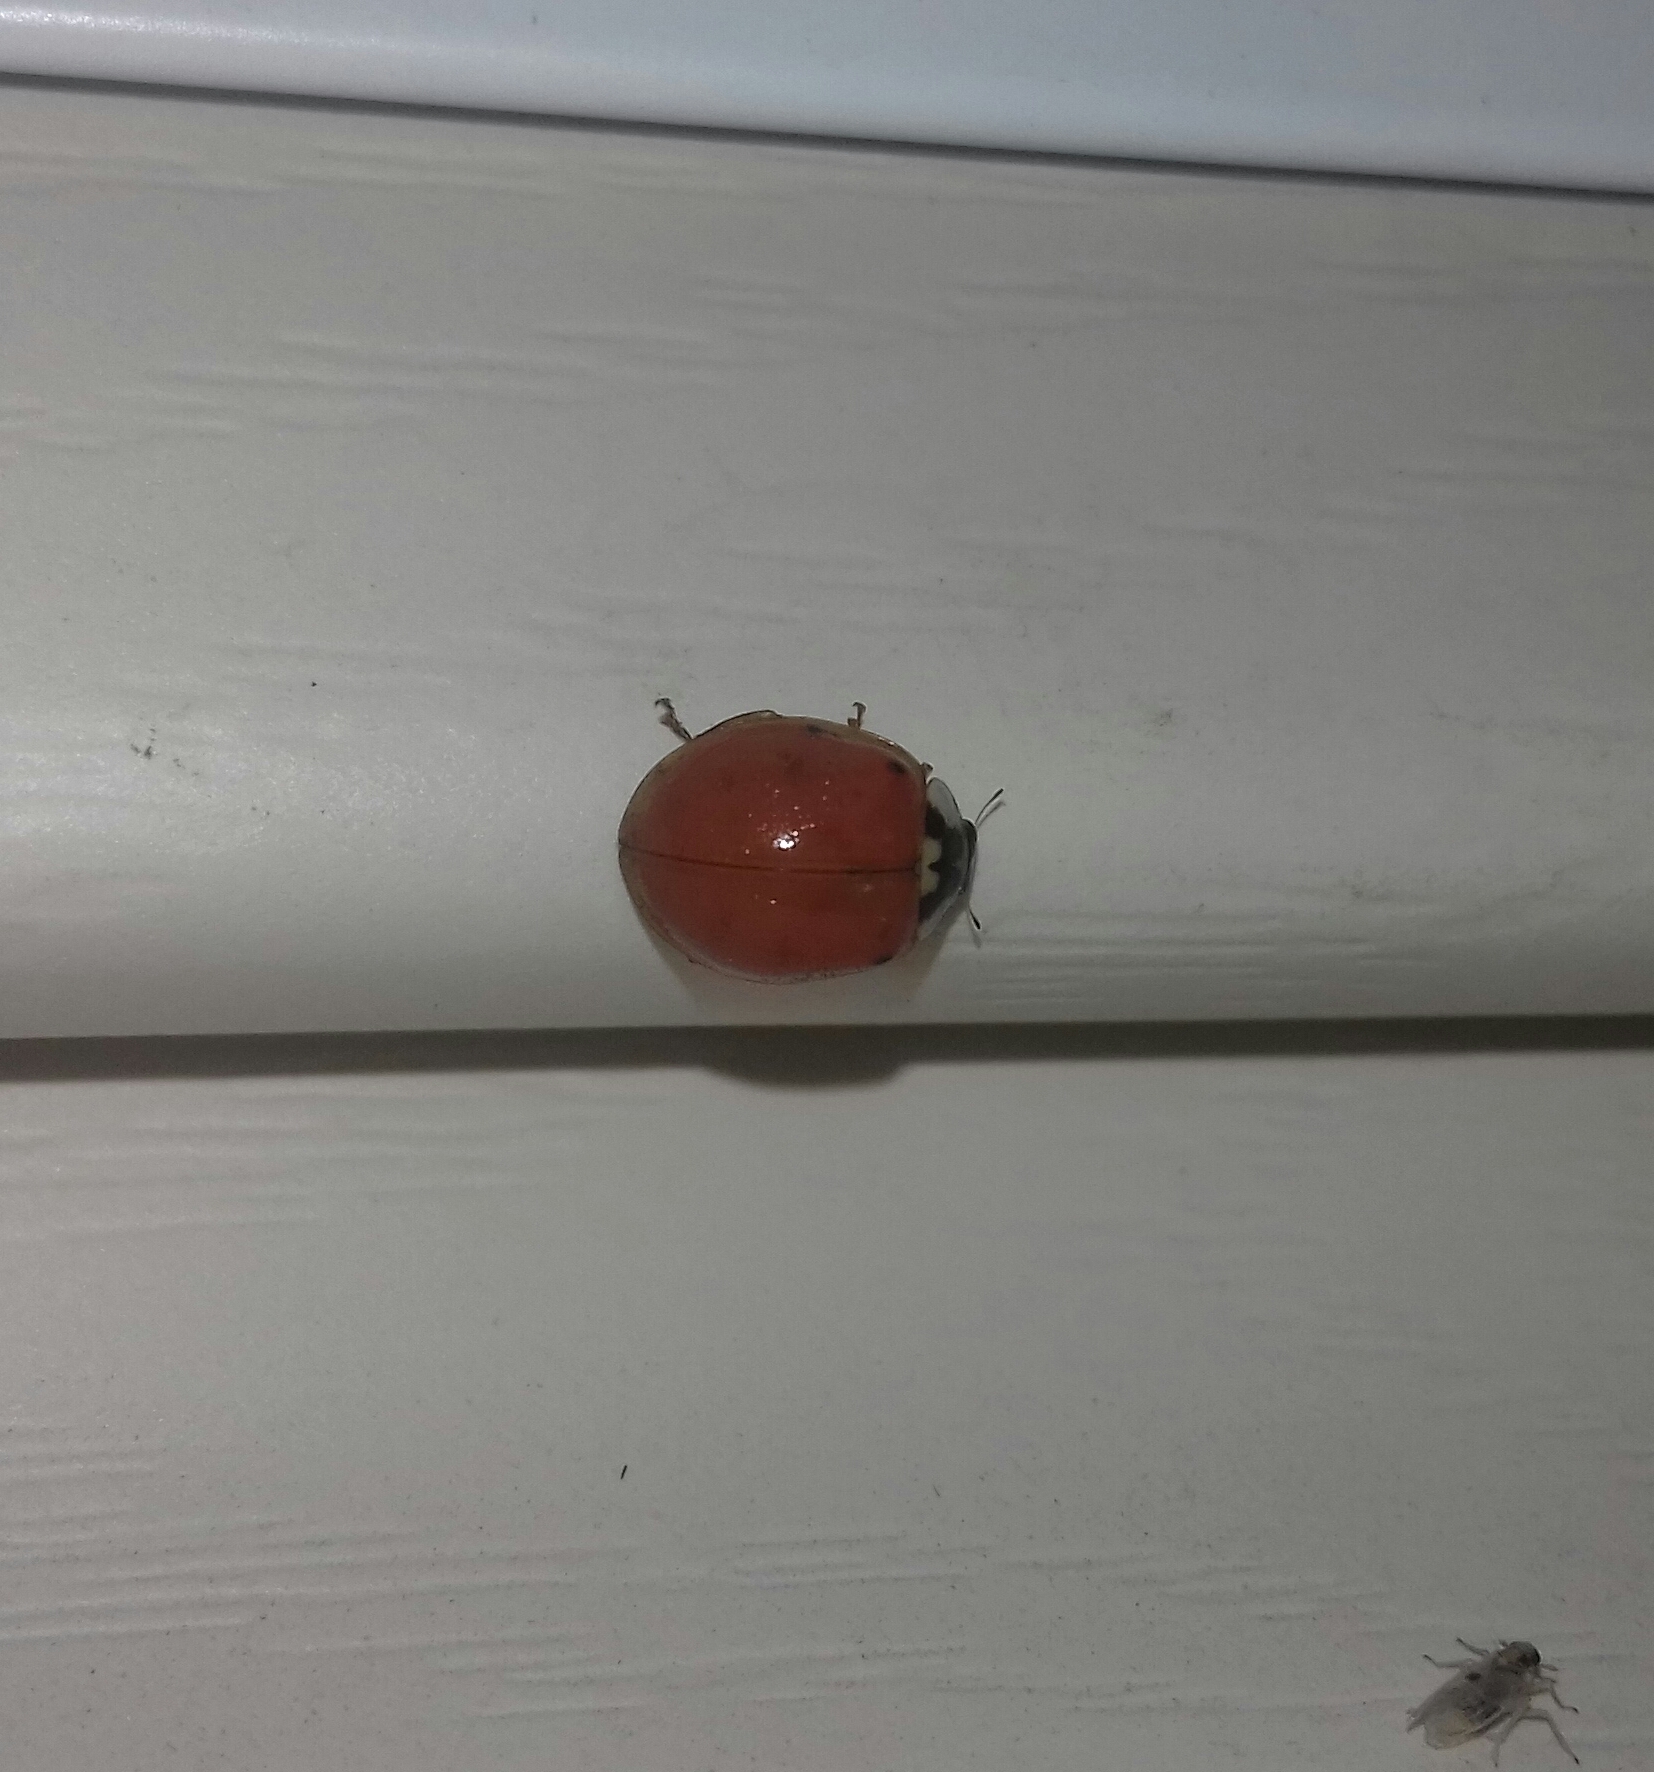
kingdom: Animalia
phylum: Arthropoda
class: Insecta
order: Coleoptera
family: Coccinellidae
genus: Harmonia
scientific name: Harmonia axyridis
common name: Harlequin ladybird
